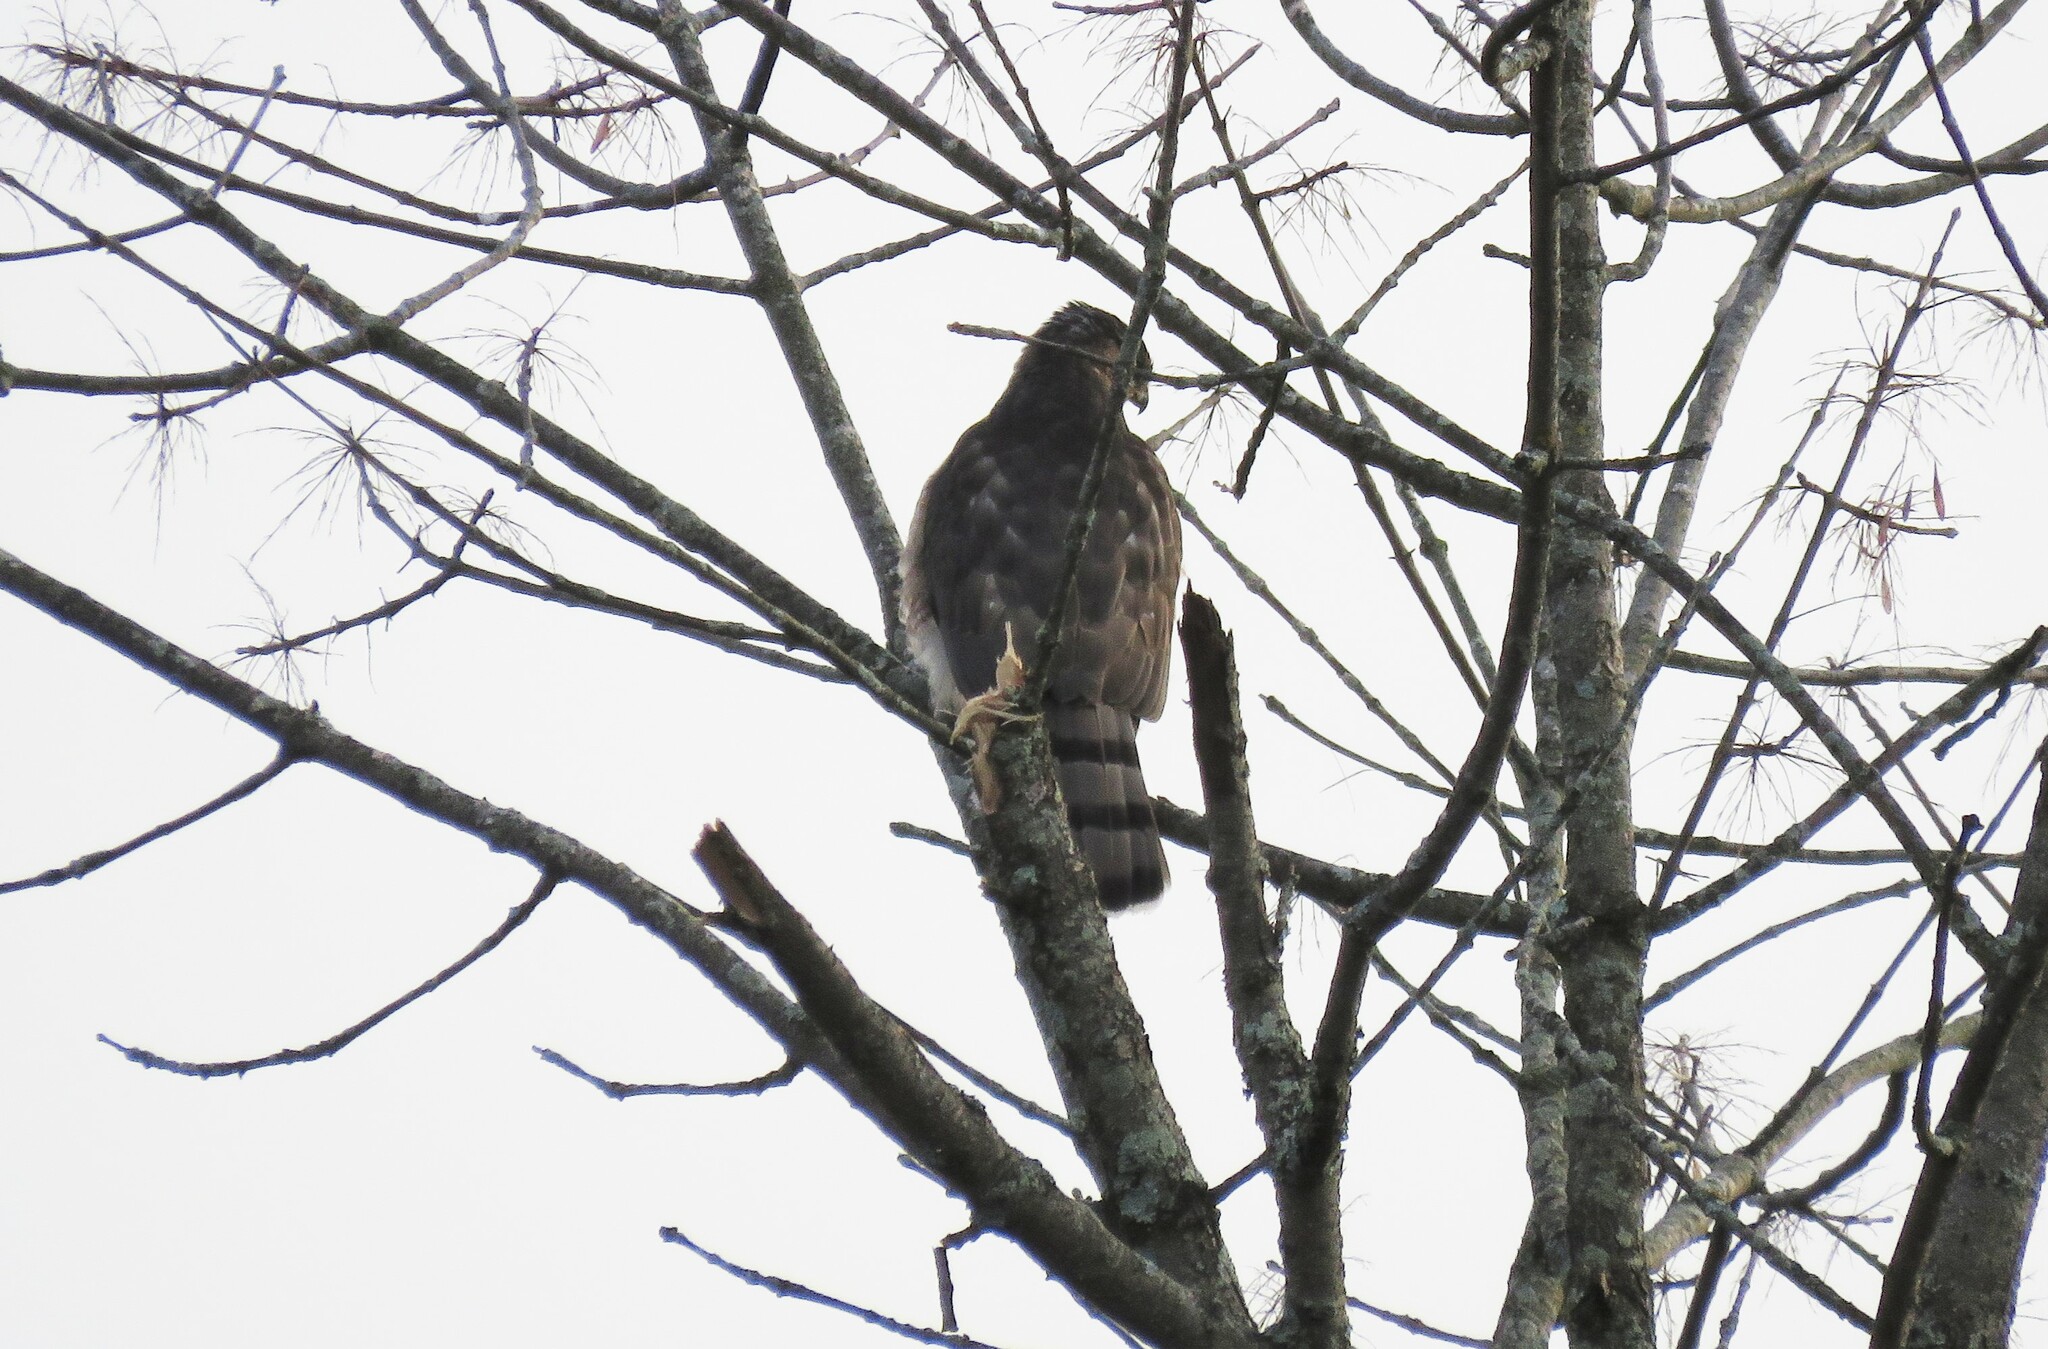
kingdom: Animalia
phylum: Chordata
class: Aves
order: Accipitriformes
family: Accipitridae
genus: Accipiter
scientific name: Accipiter cooperii
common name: Cooper's hawk
